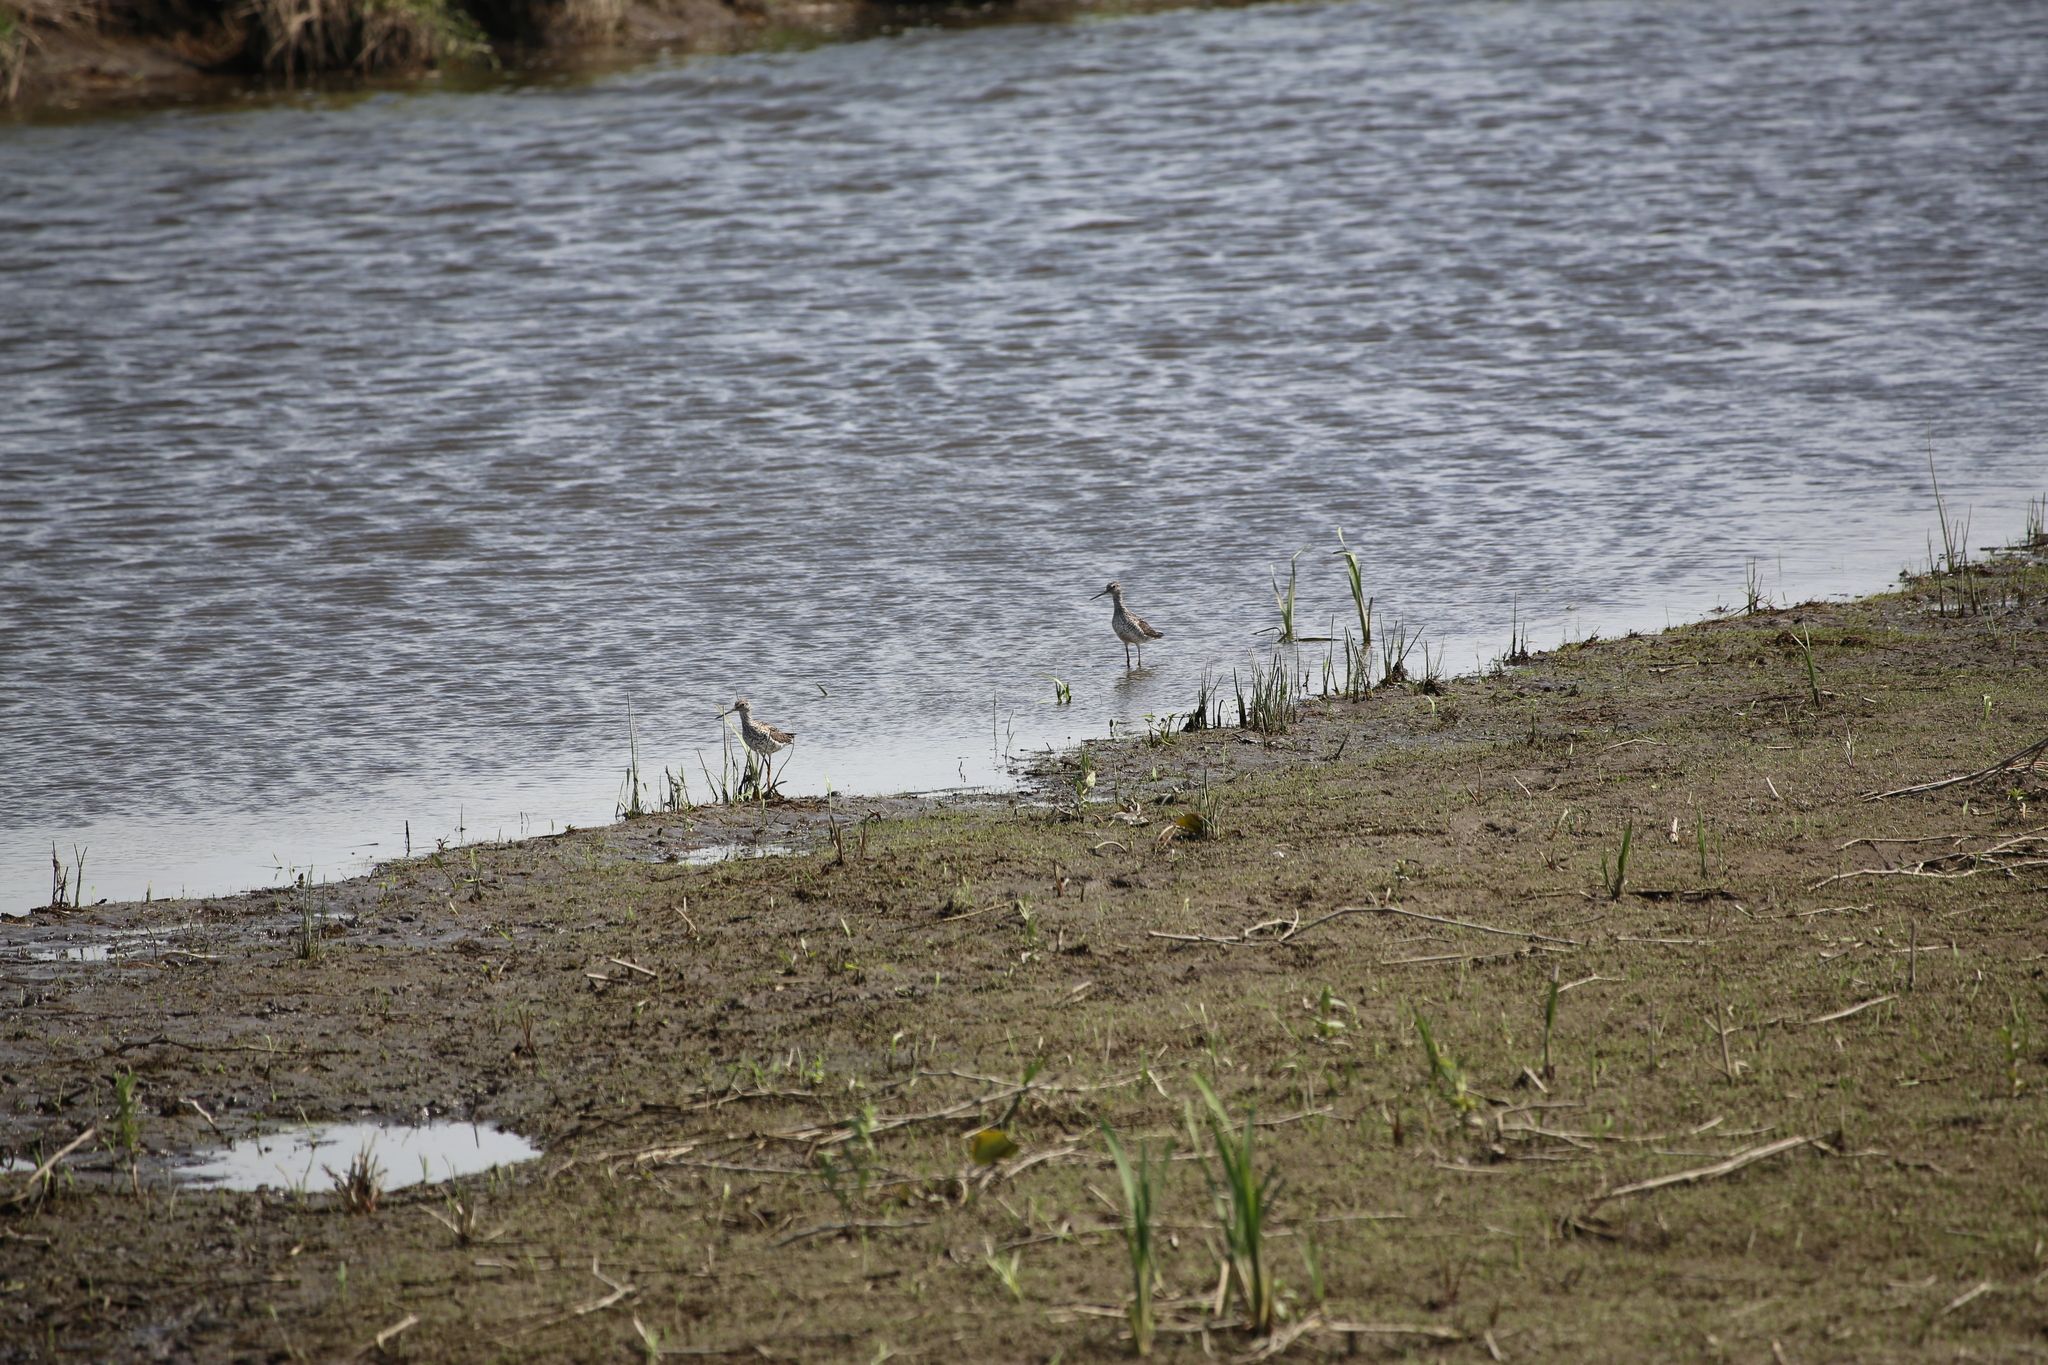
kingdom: Animalia
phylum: Chordata
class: Aves
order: Charadriiformes
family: Scolopacidae
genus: Tringa
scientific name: Tringa melanoleuca
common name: Greater yellowlegs
